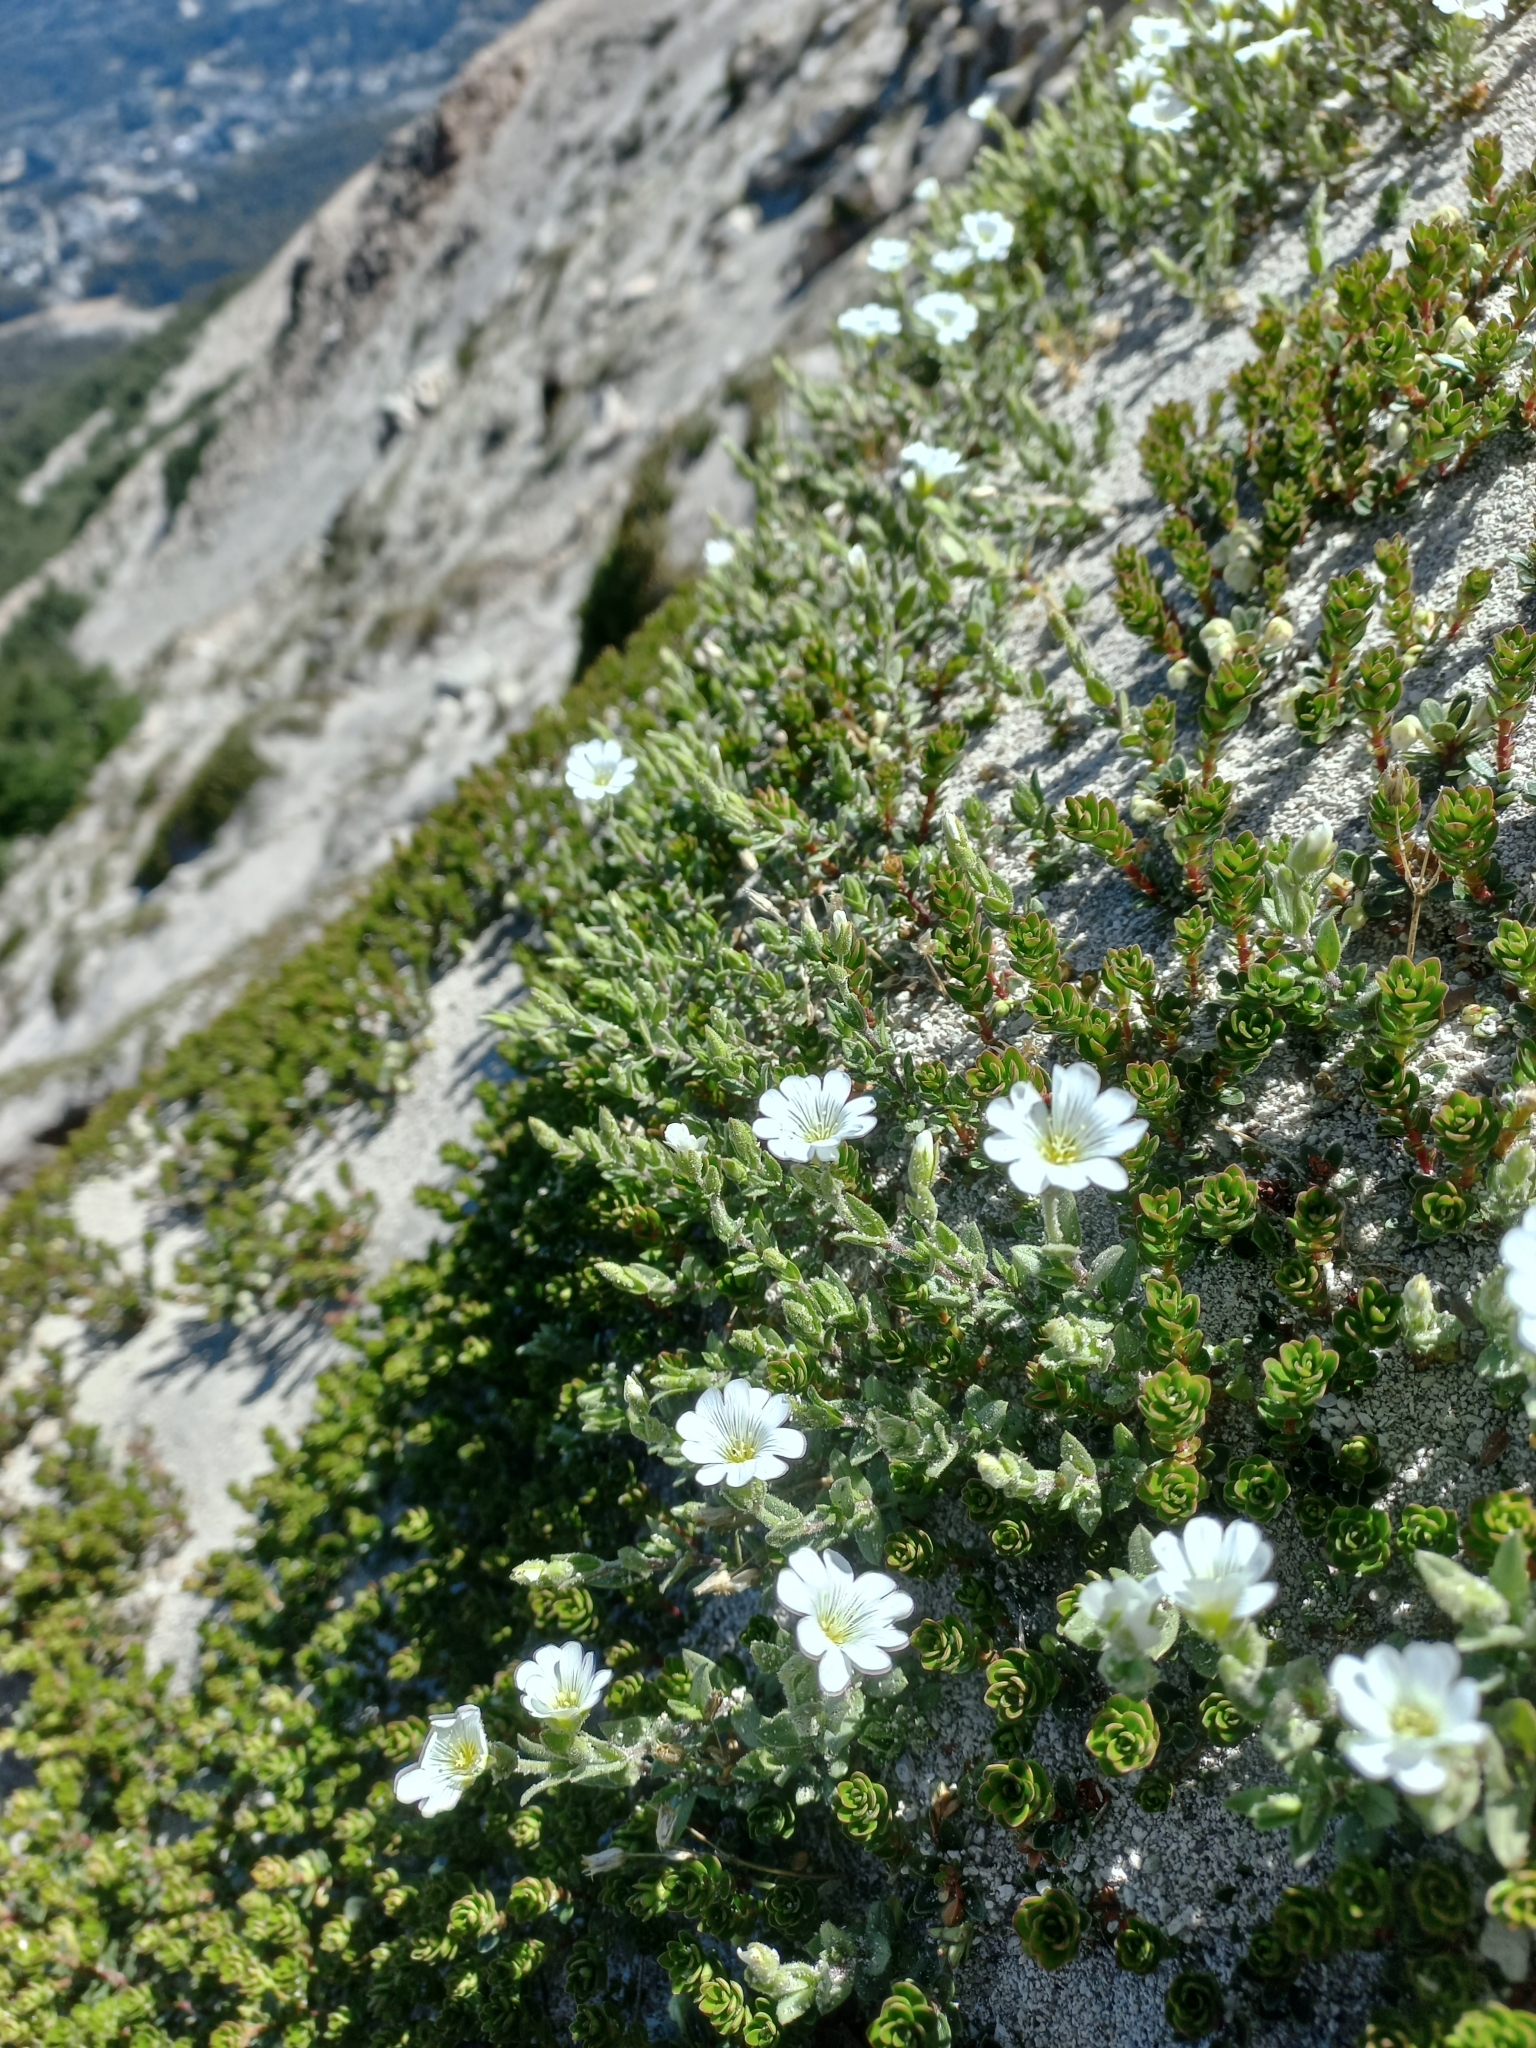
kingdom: Plantae
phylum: Tracheophyta
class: Magnoliopsida
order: Caryophyllales
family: Caryophyllaceae
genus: Cerastium
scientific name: Cerastium arvense
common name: Field mouse-ear
